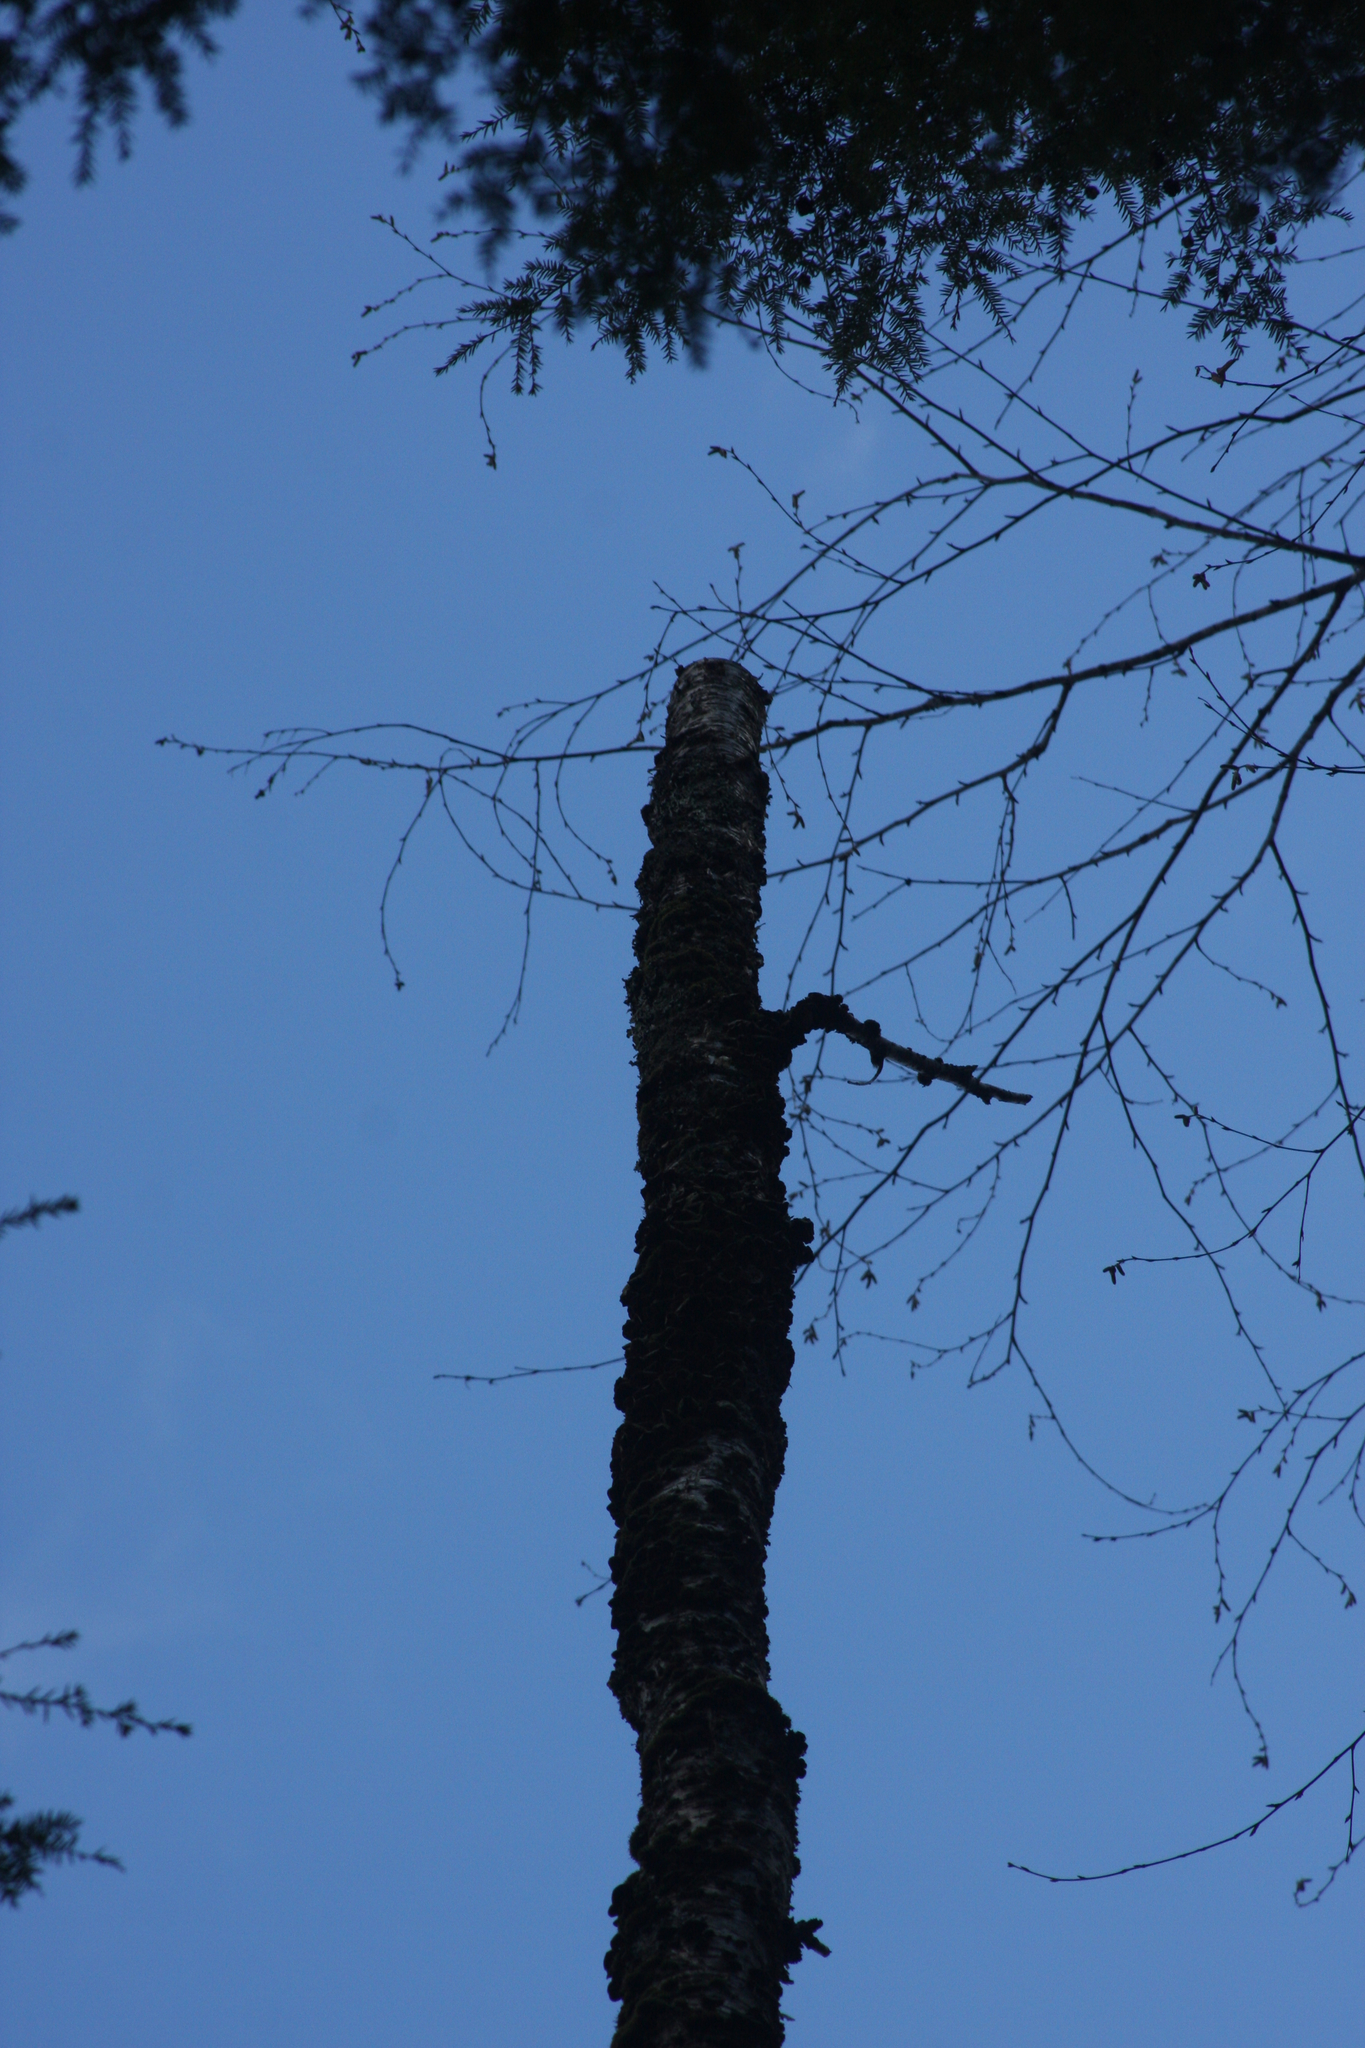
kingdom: Plantae
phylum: Tracheophyta
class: Magnoliopsida
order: Fagales
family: Betulaceae
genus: Betula
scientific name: Betula alleghaniensis
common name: Yellow birch
